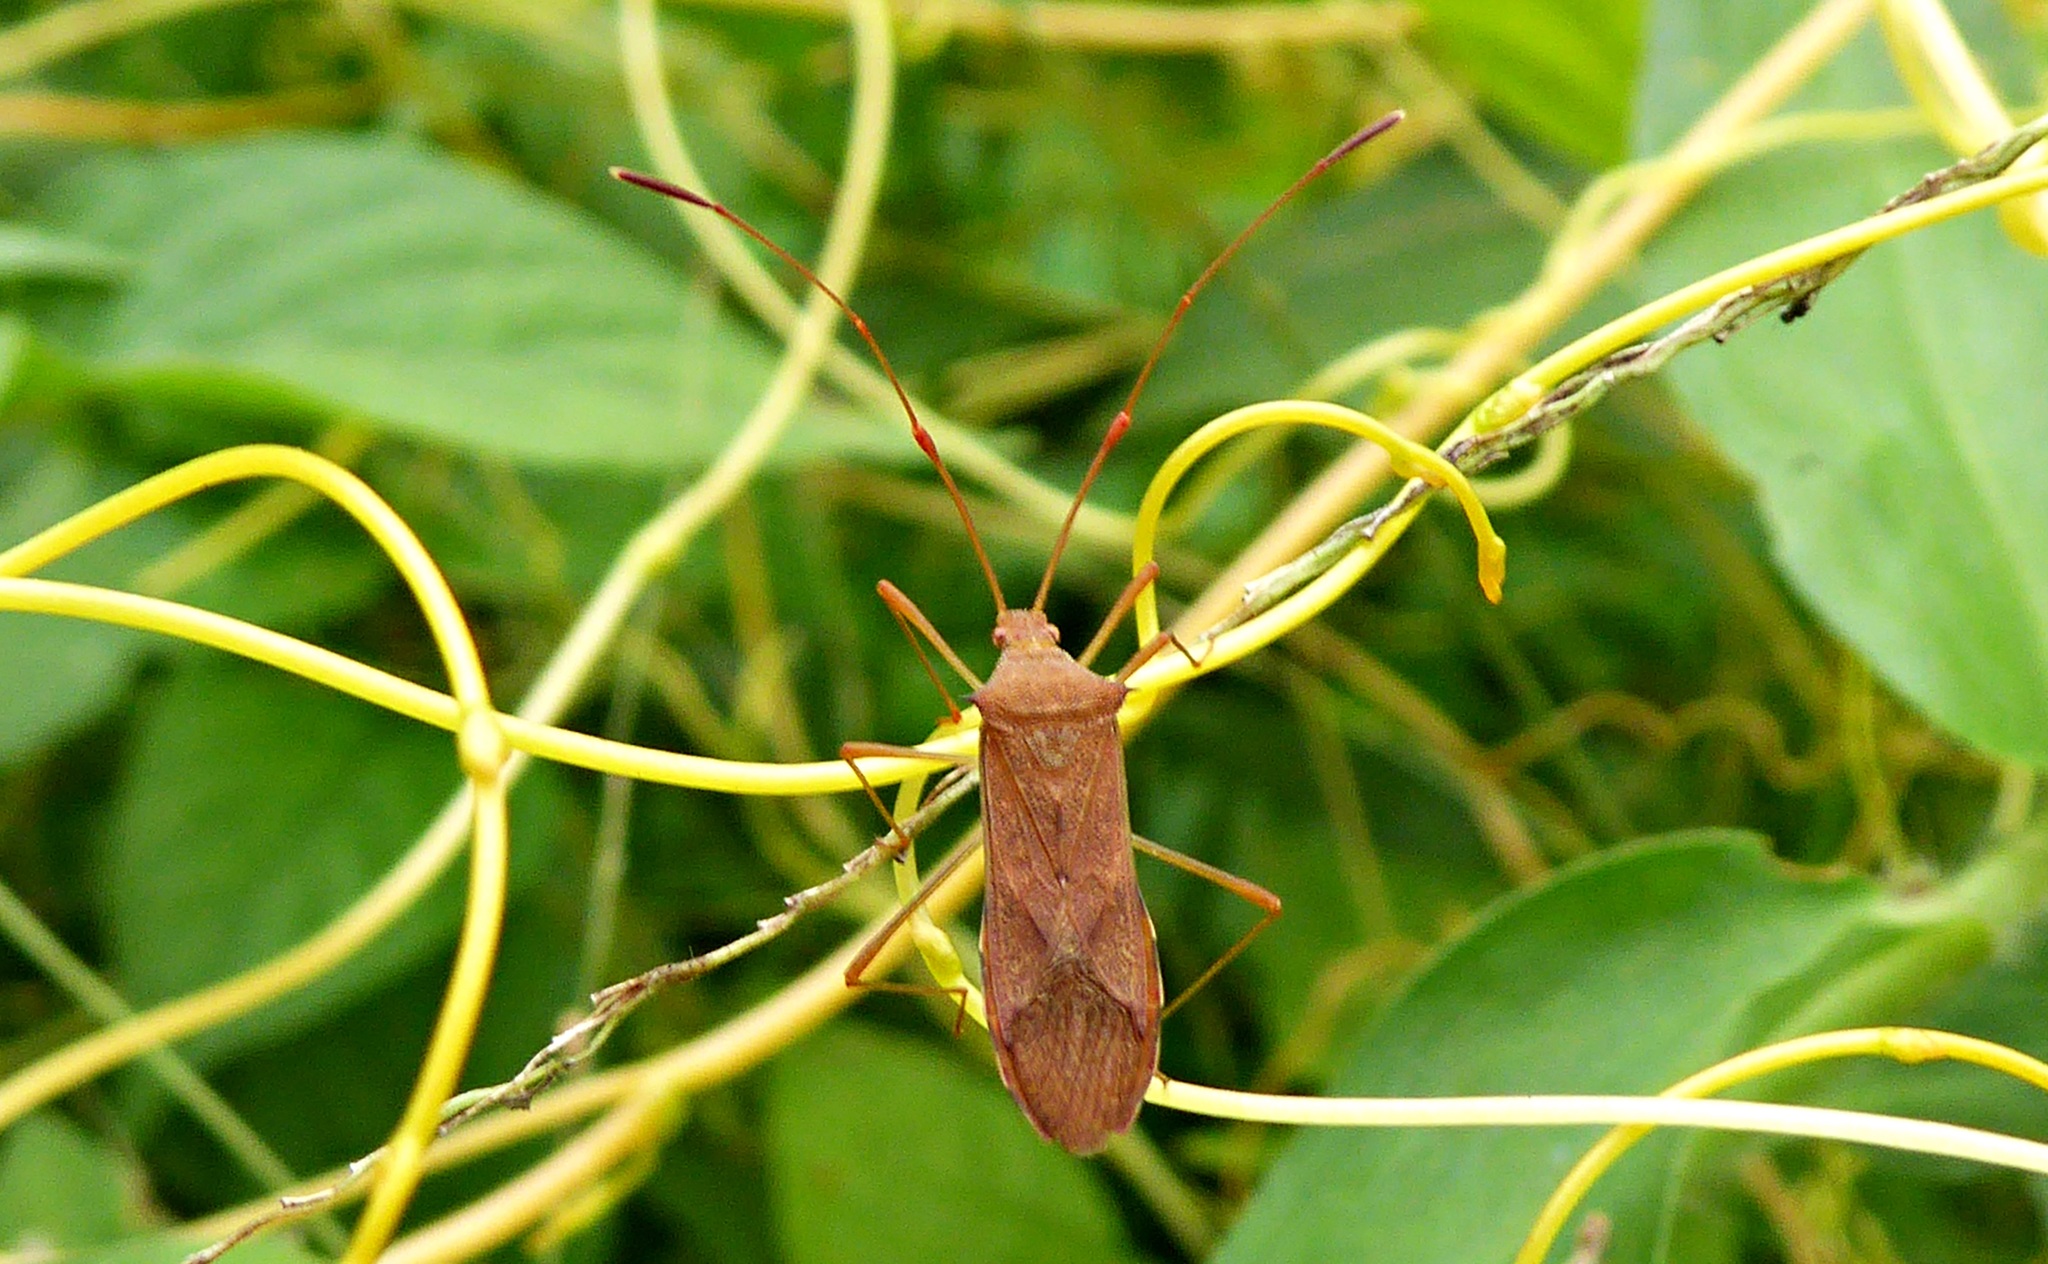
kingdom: Animalia
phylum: Arthropoda
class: Insecta
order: Hemiptera
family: Coreidae
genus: Hydara
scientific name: Hydara tenuicornis
